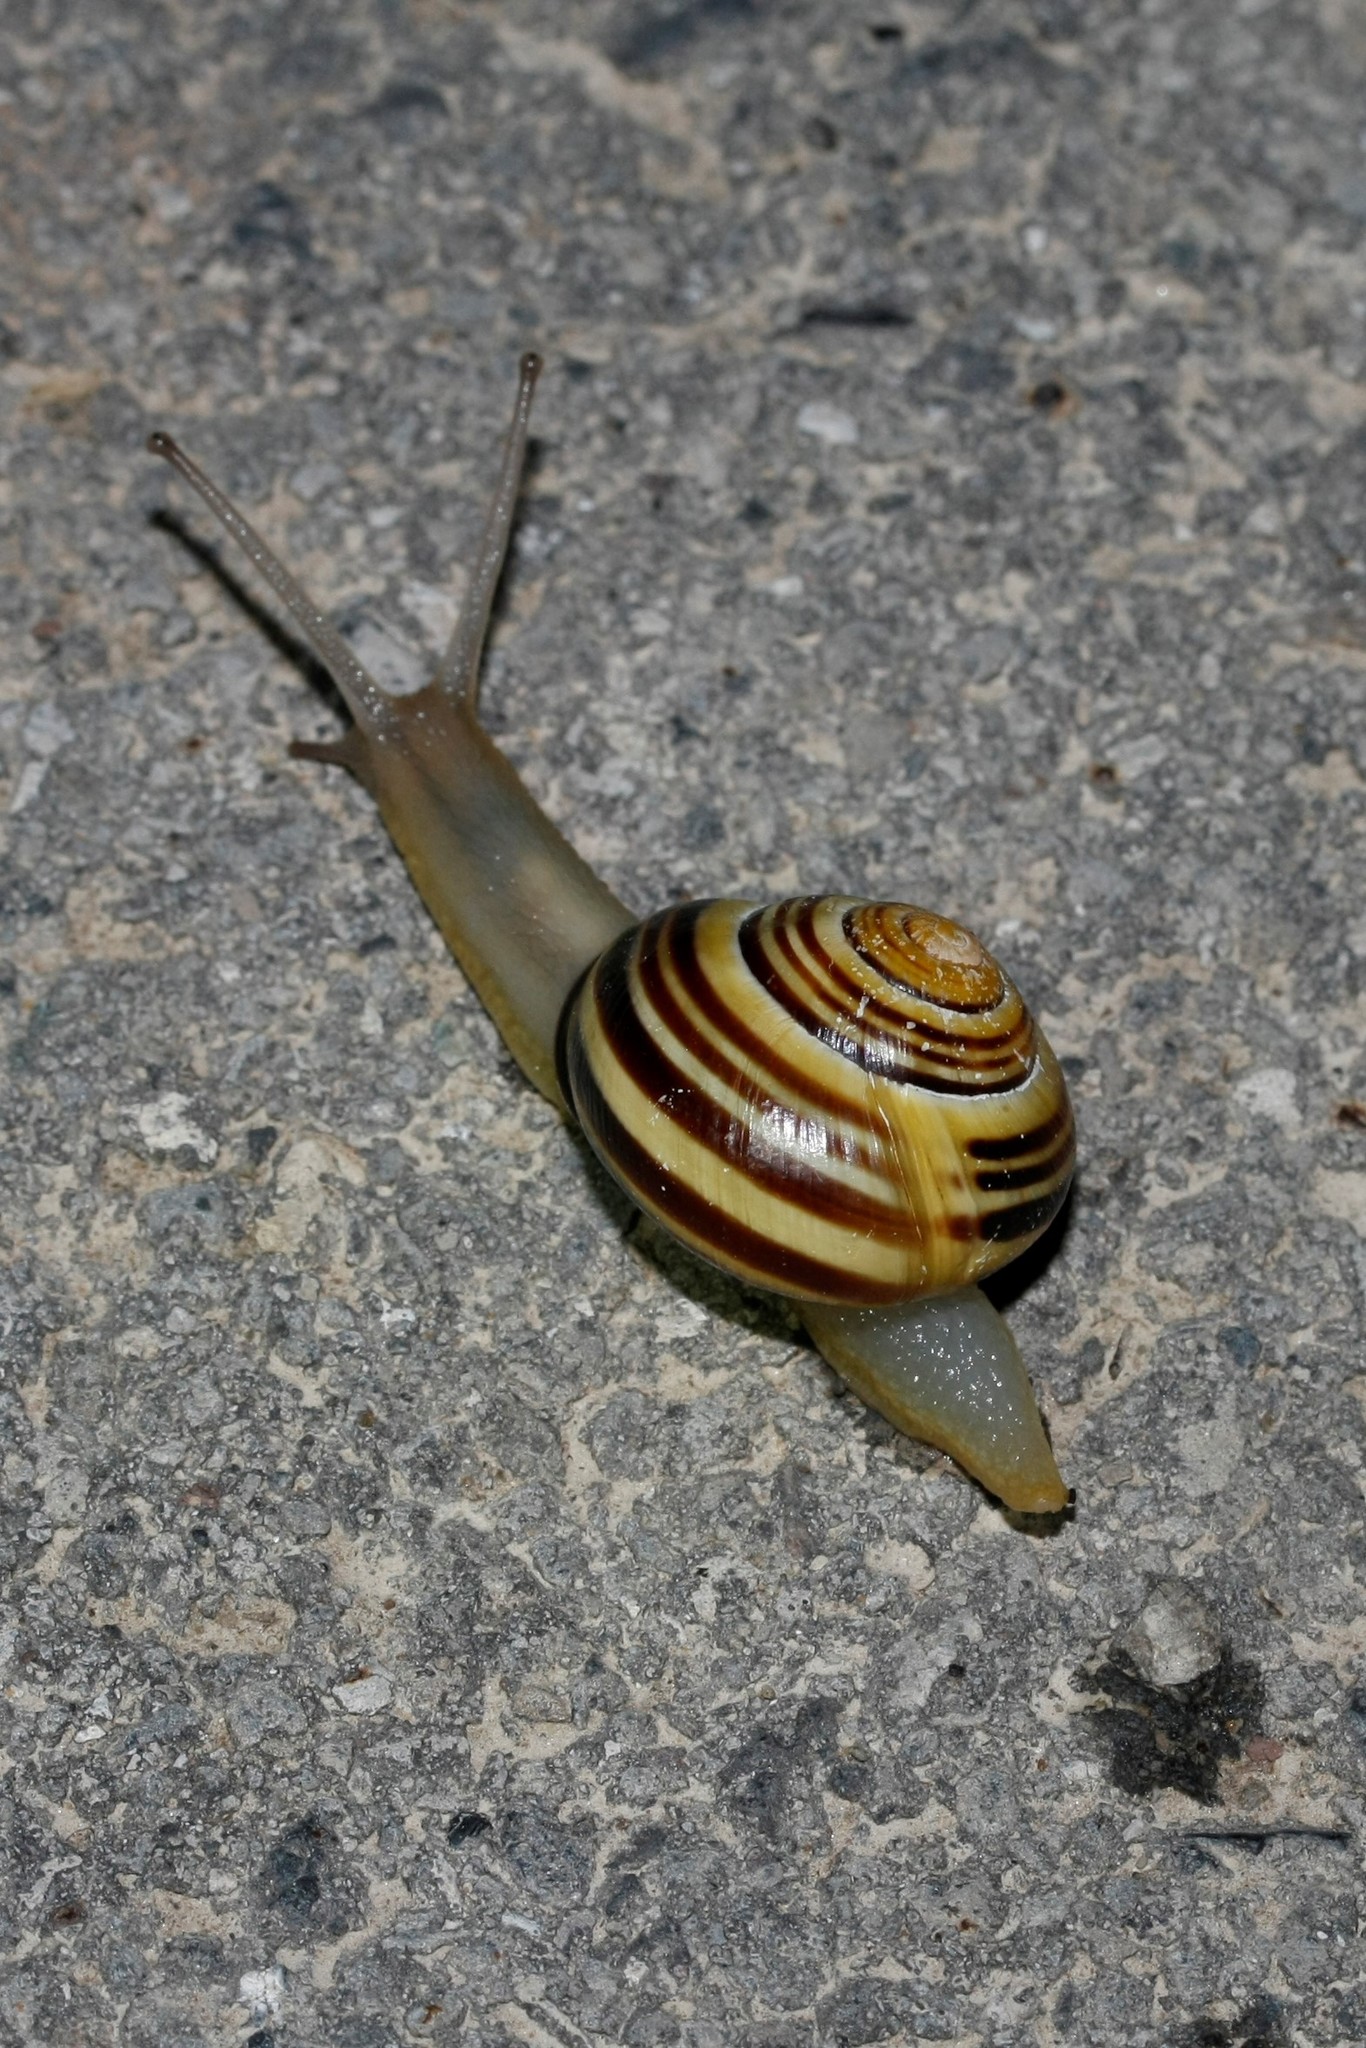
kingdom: Animalia
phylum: Mollusca
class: Gastropoda
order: Stylommatophora
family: Helicidae
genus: Cepaea
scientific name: Cepaea nemoralis
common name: Grovesnail
